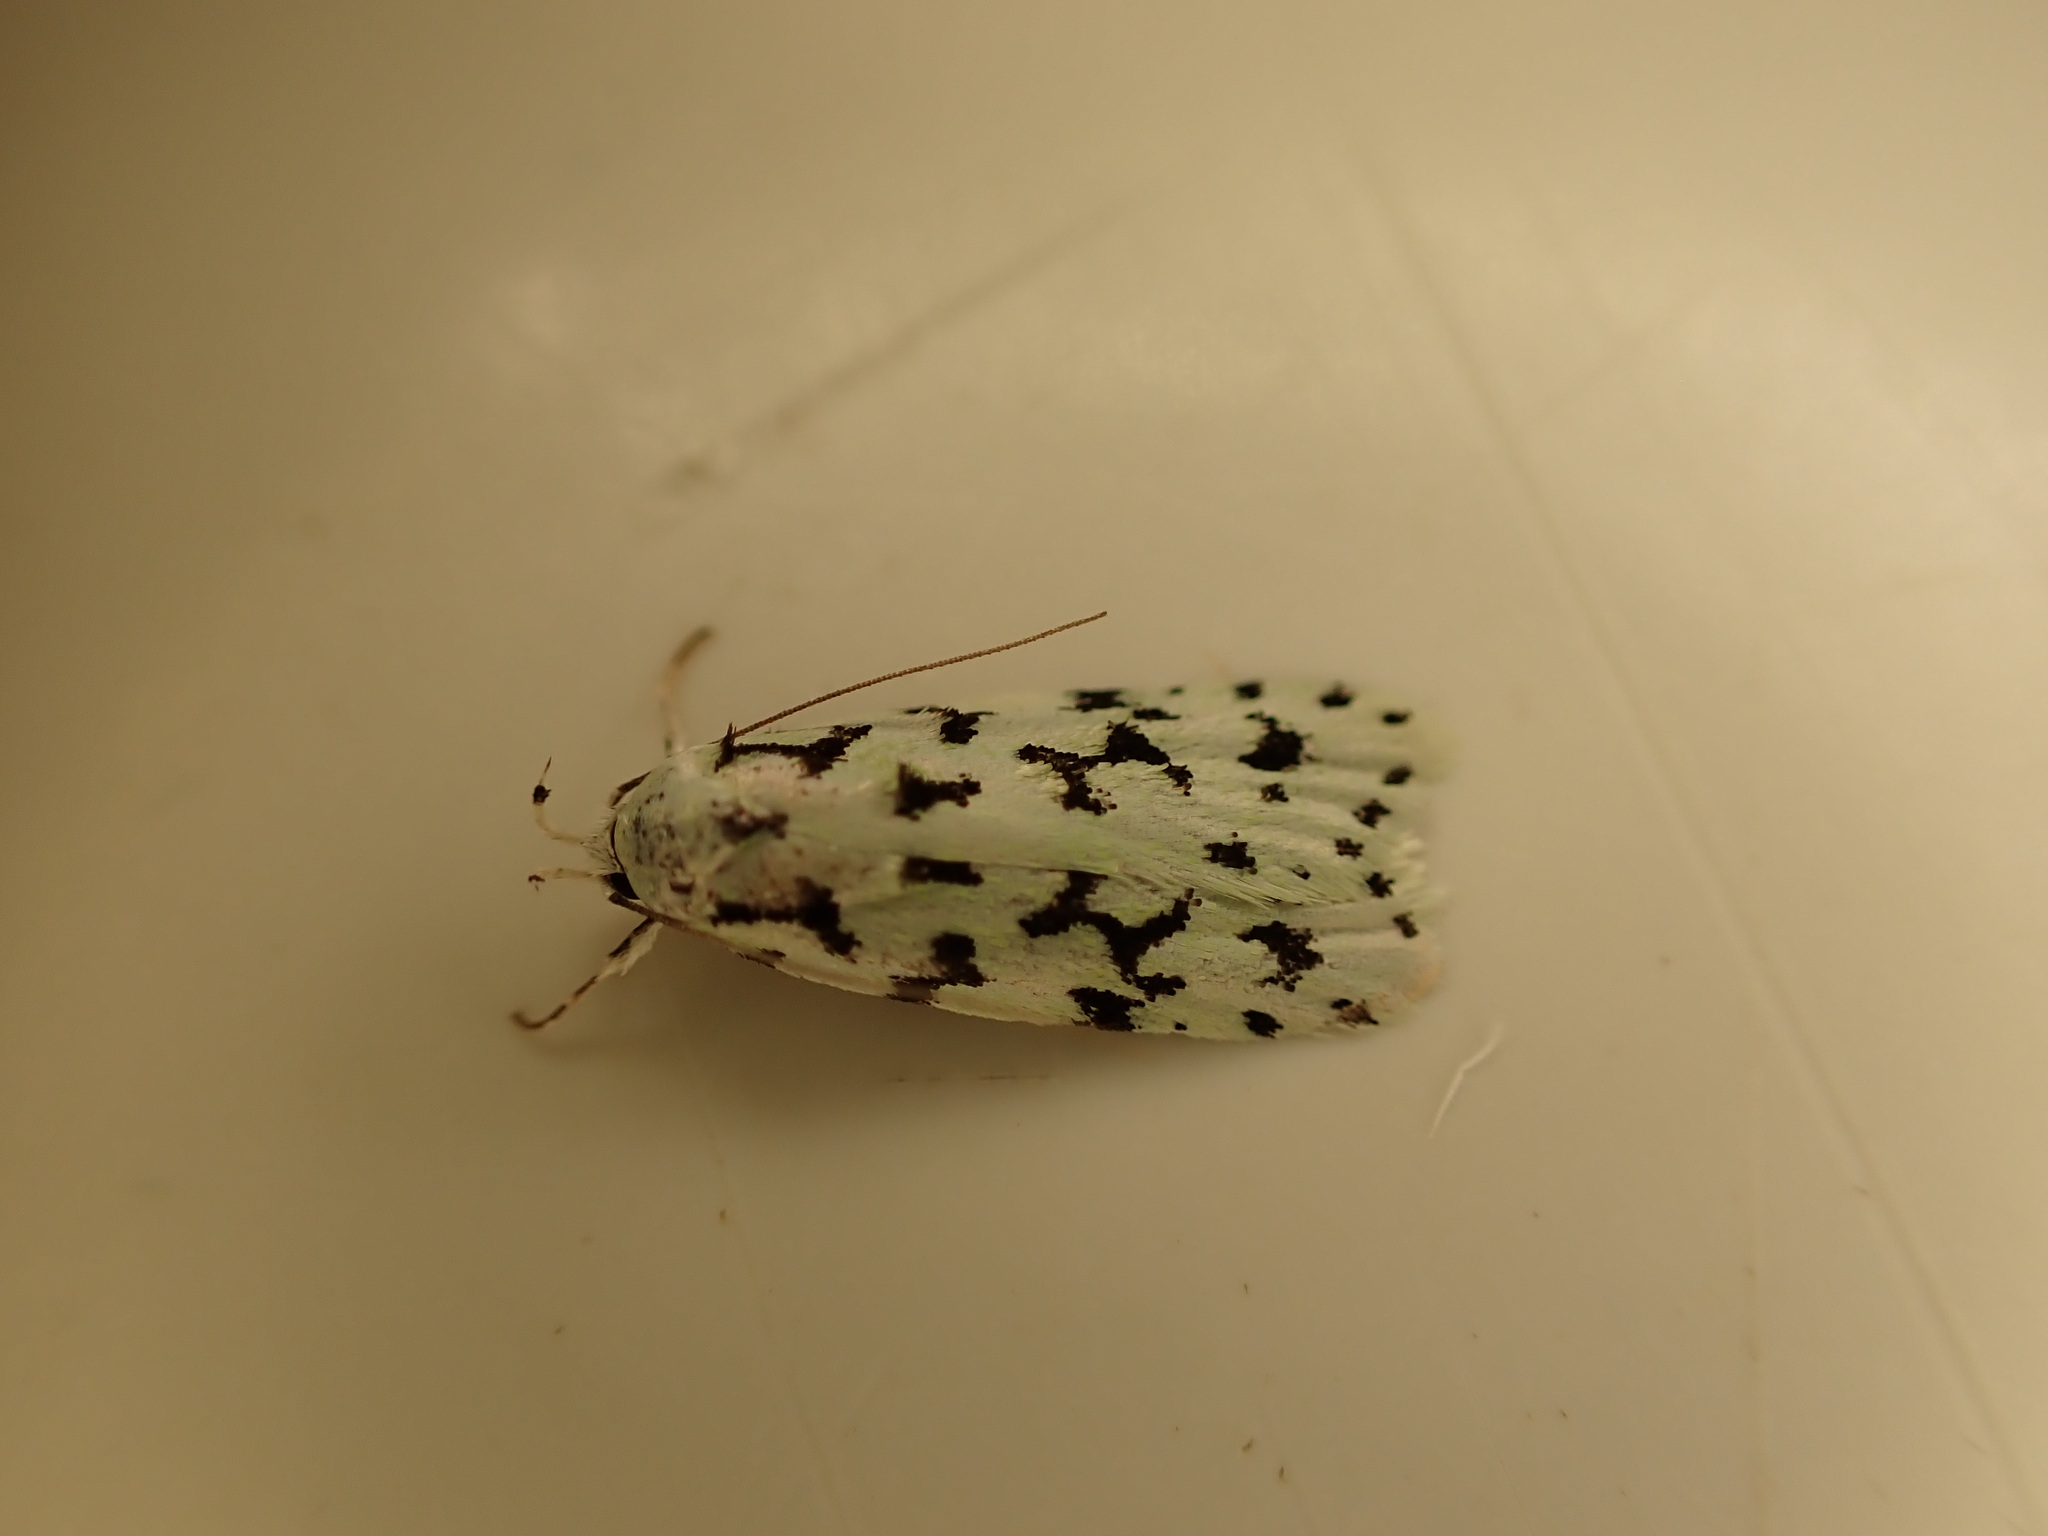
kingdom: Animalia
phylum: Arthropoda
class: Insecta
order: Lepidoptera
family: Oecophoridae
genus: Izatha
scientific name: Izatha huttoni
